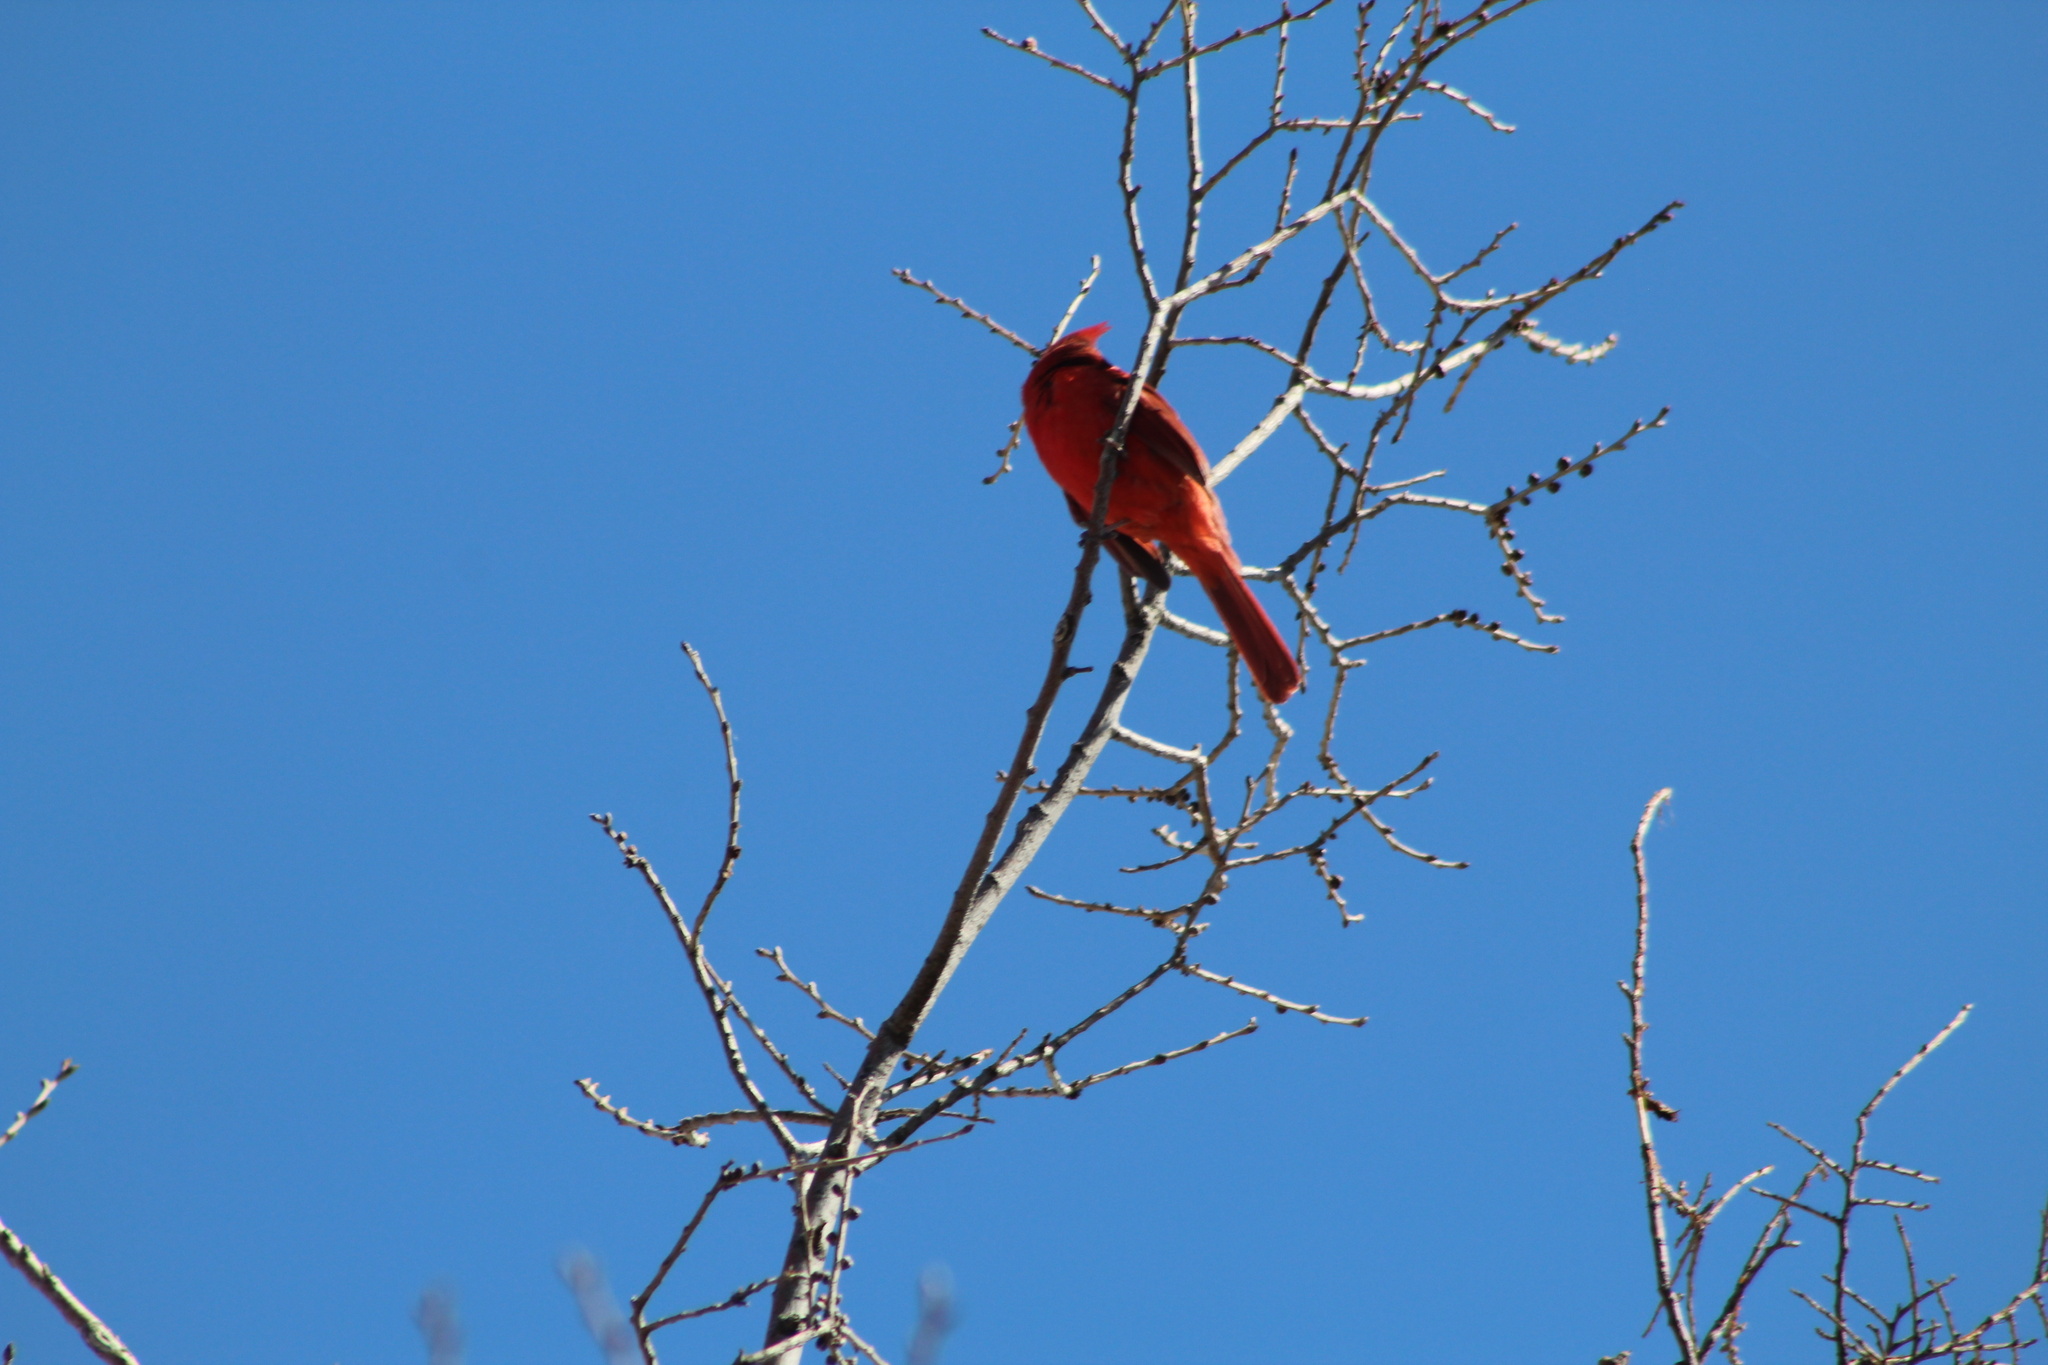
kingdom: Animalia
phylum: Chordata
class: Aves
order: Passeriformes
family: Cardinalidae
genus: Cardinalis
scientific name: Cardinalis cardinalis
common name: Northern cardinal
